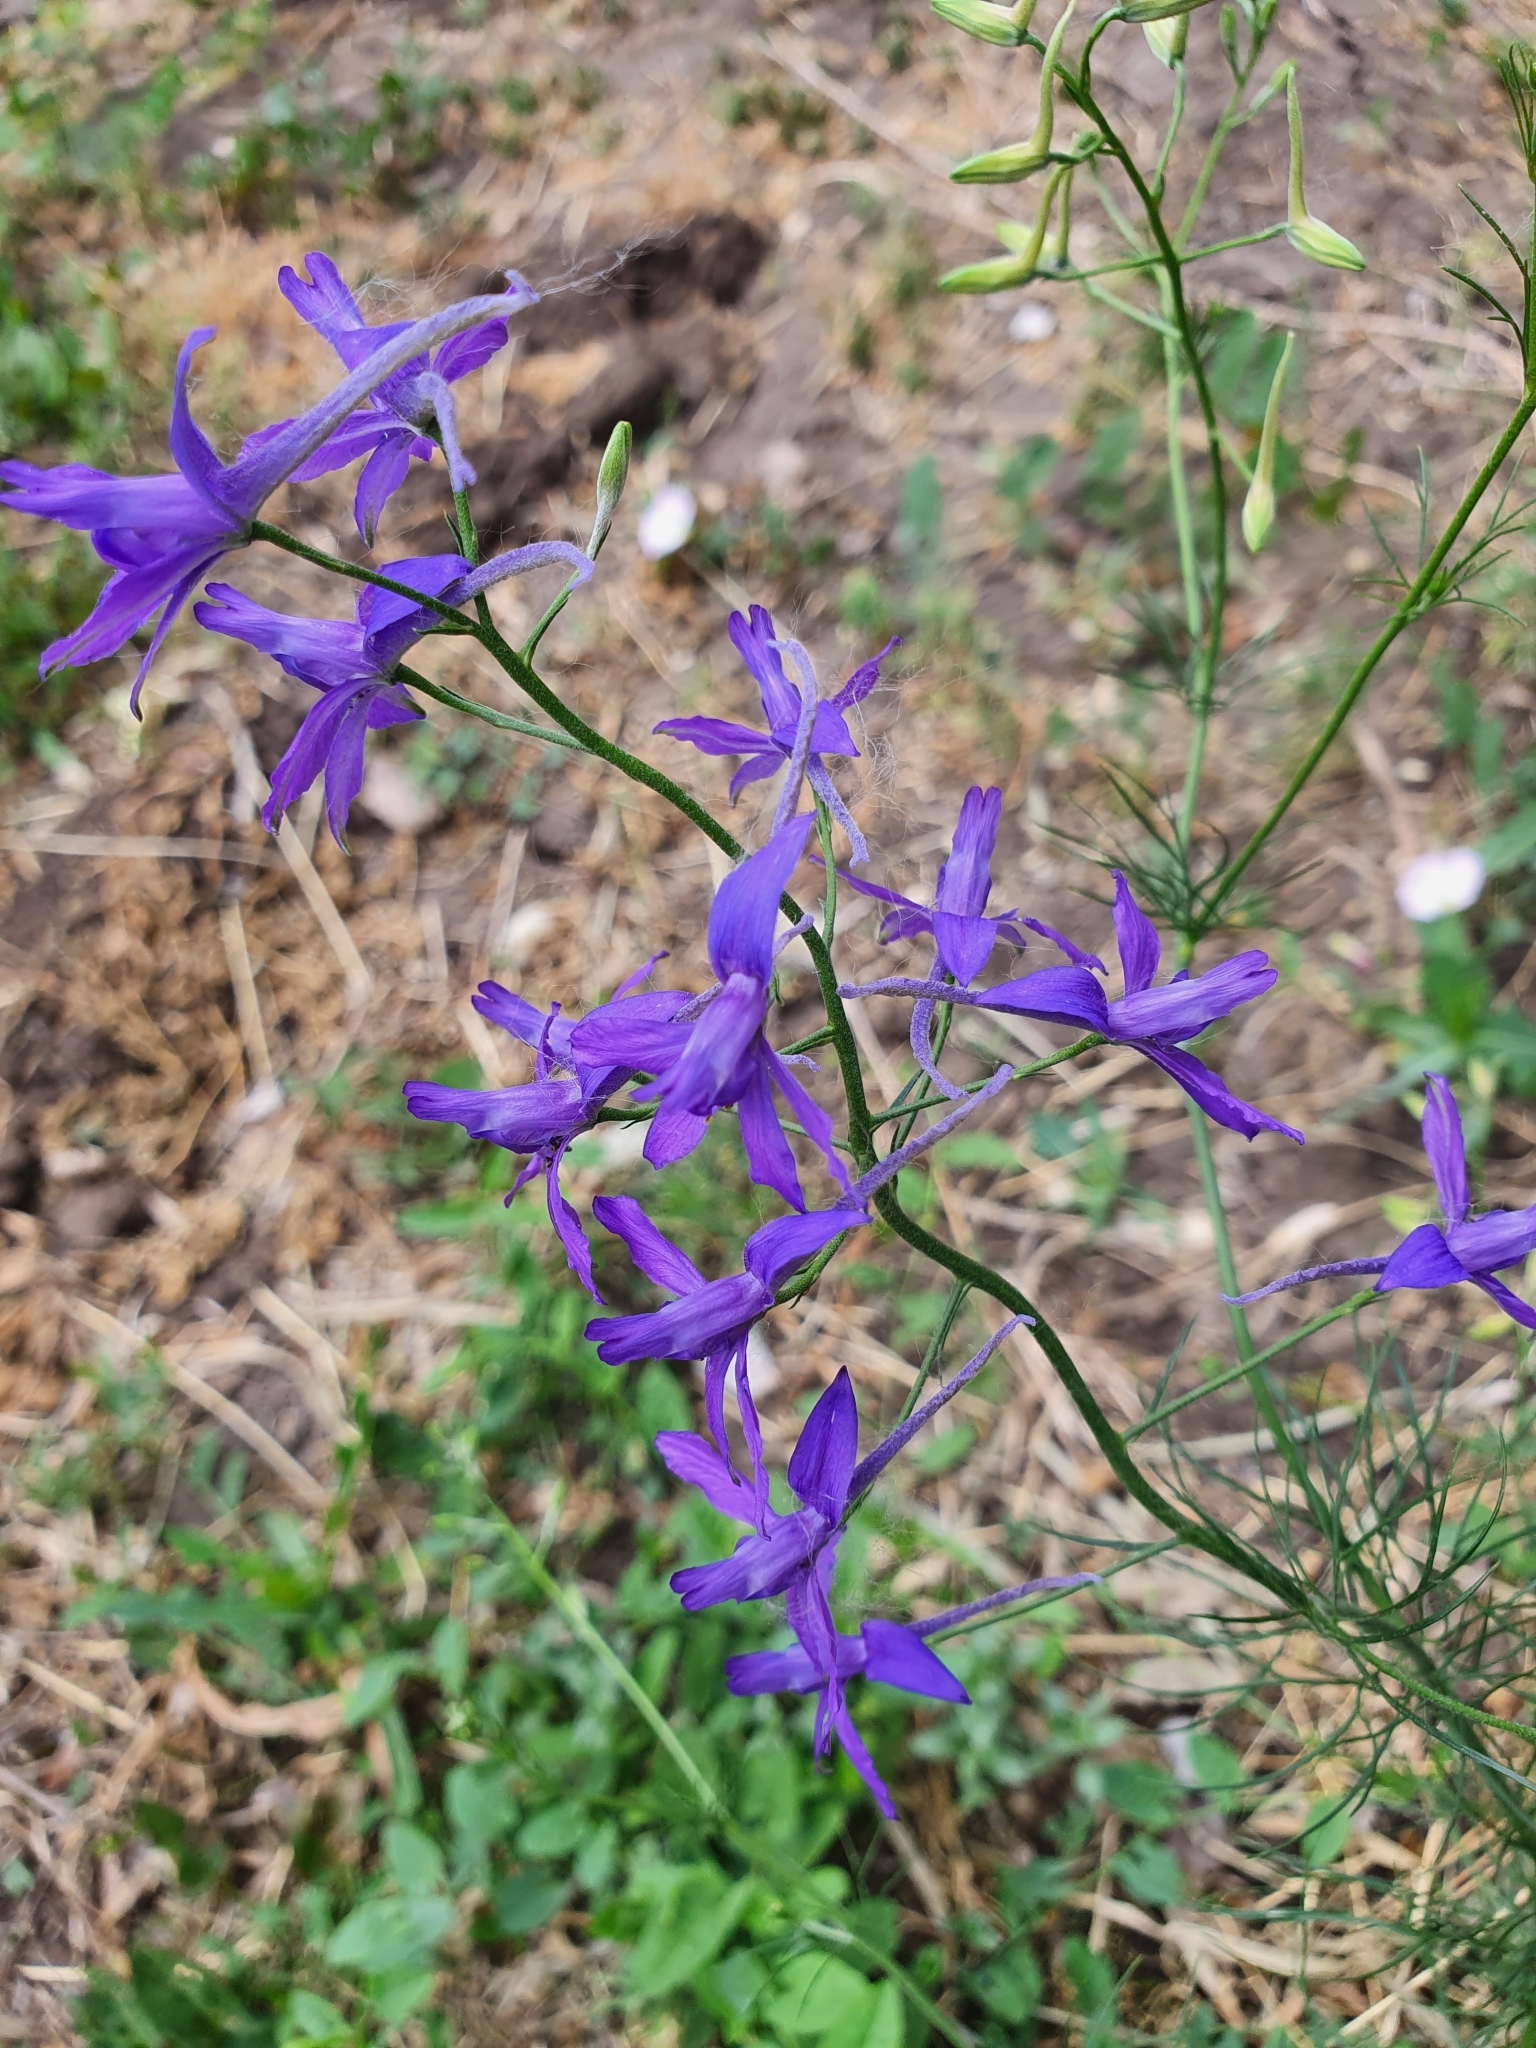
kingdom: Plantae
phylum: Tracheophyta
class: Magnoliopsida
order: Ranunculales
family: Ranunculaceae
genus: Delphinium
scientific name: Delphinium consolida
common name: Branching larkspur
